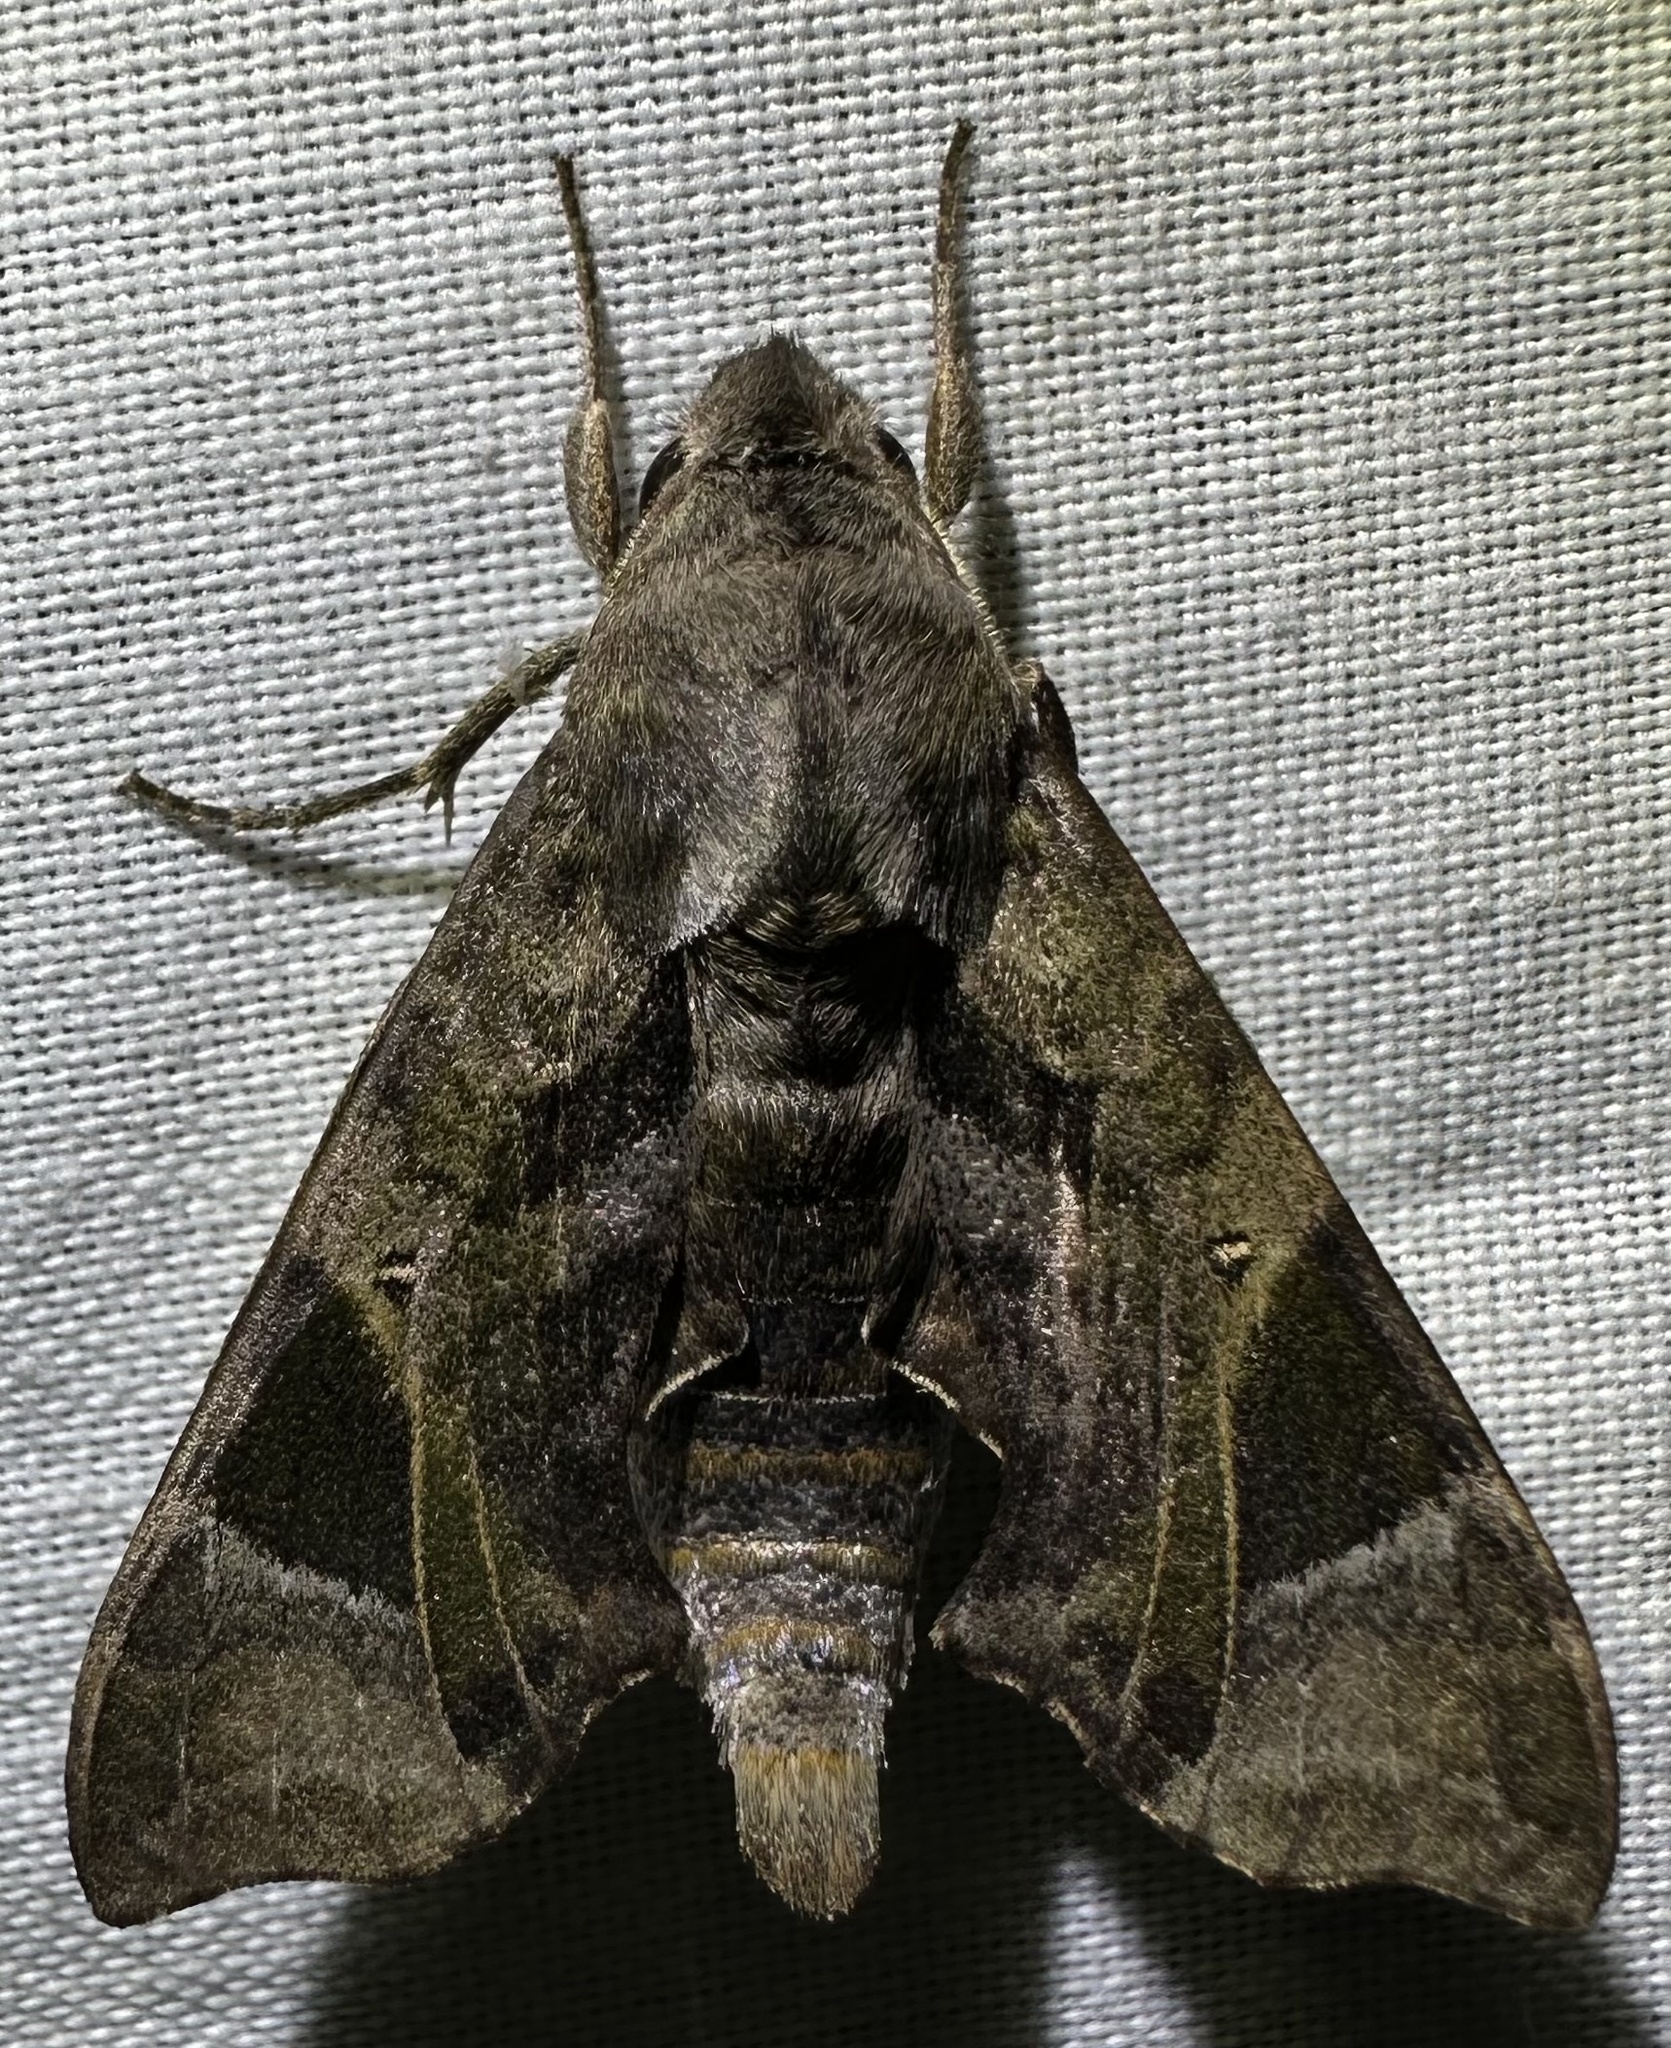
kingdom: Animalia
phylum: Arthropoda
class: Insecta
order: Lepidoptera
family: Sphingidae
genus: Temnora
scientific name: Temnora plagiata
